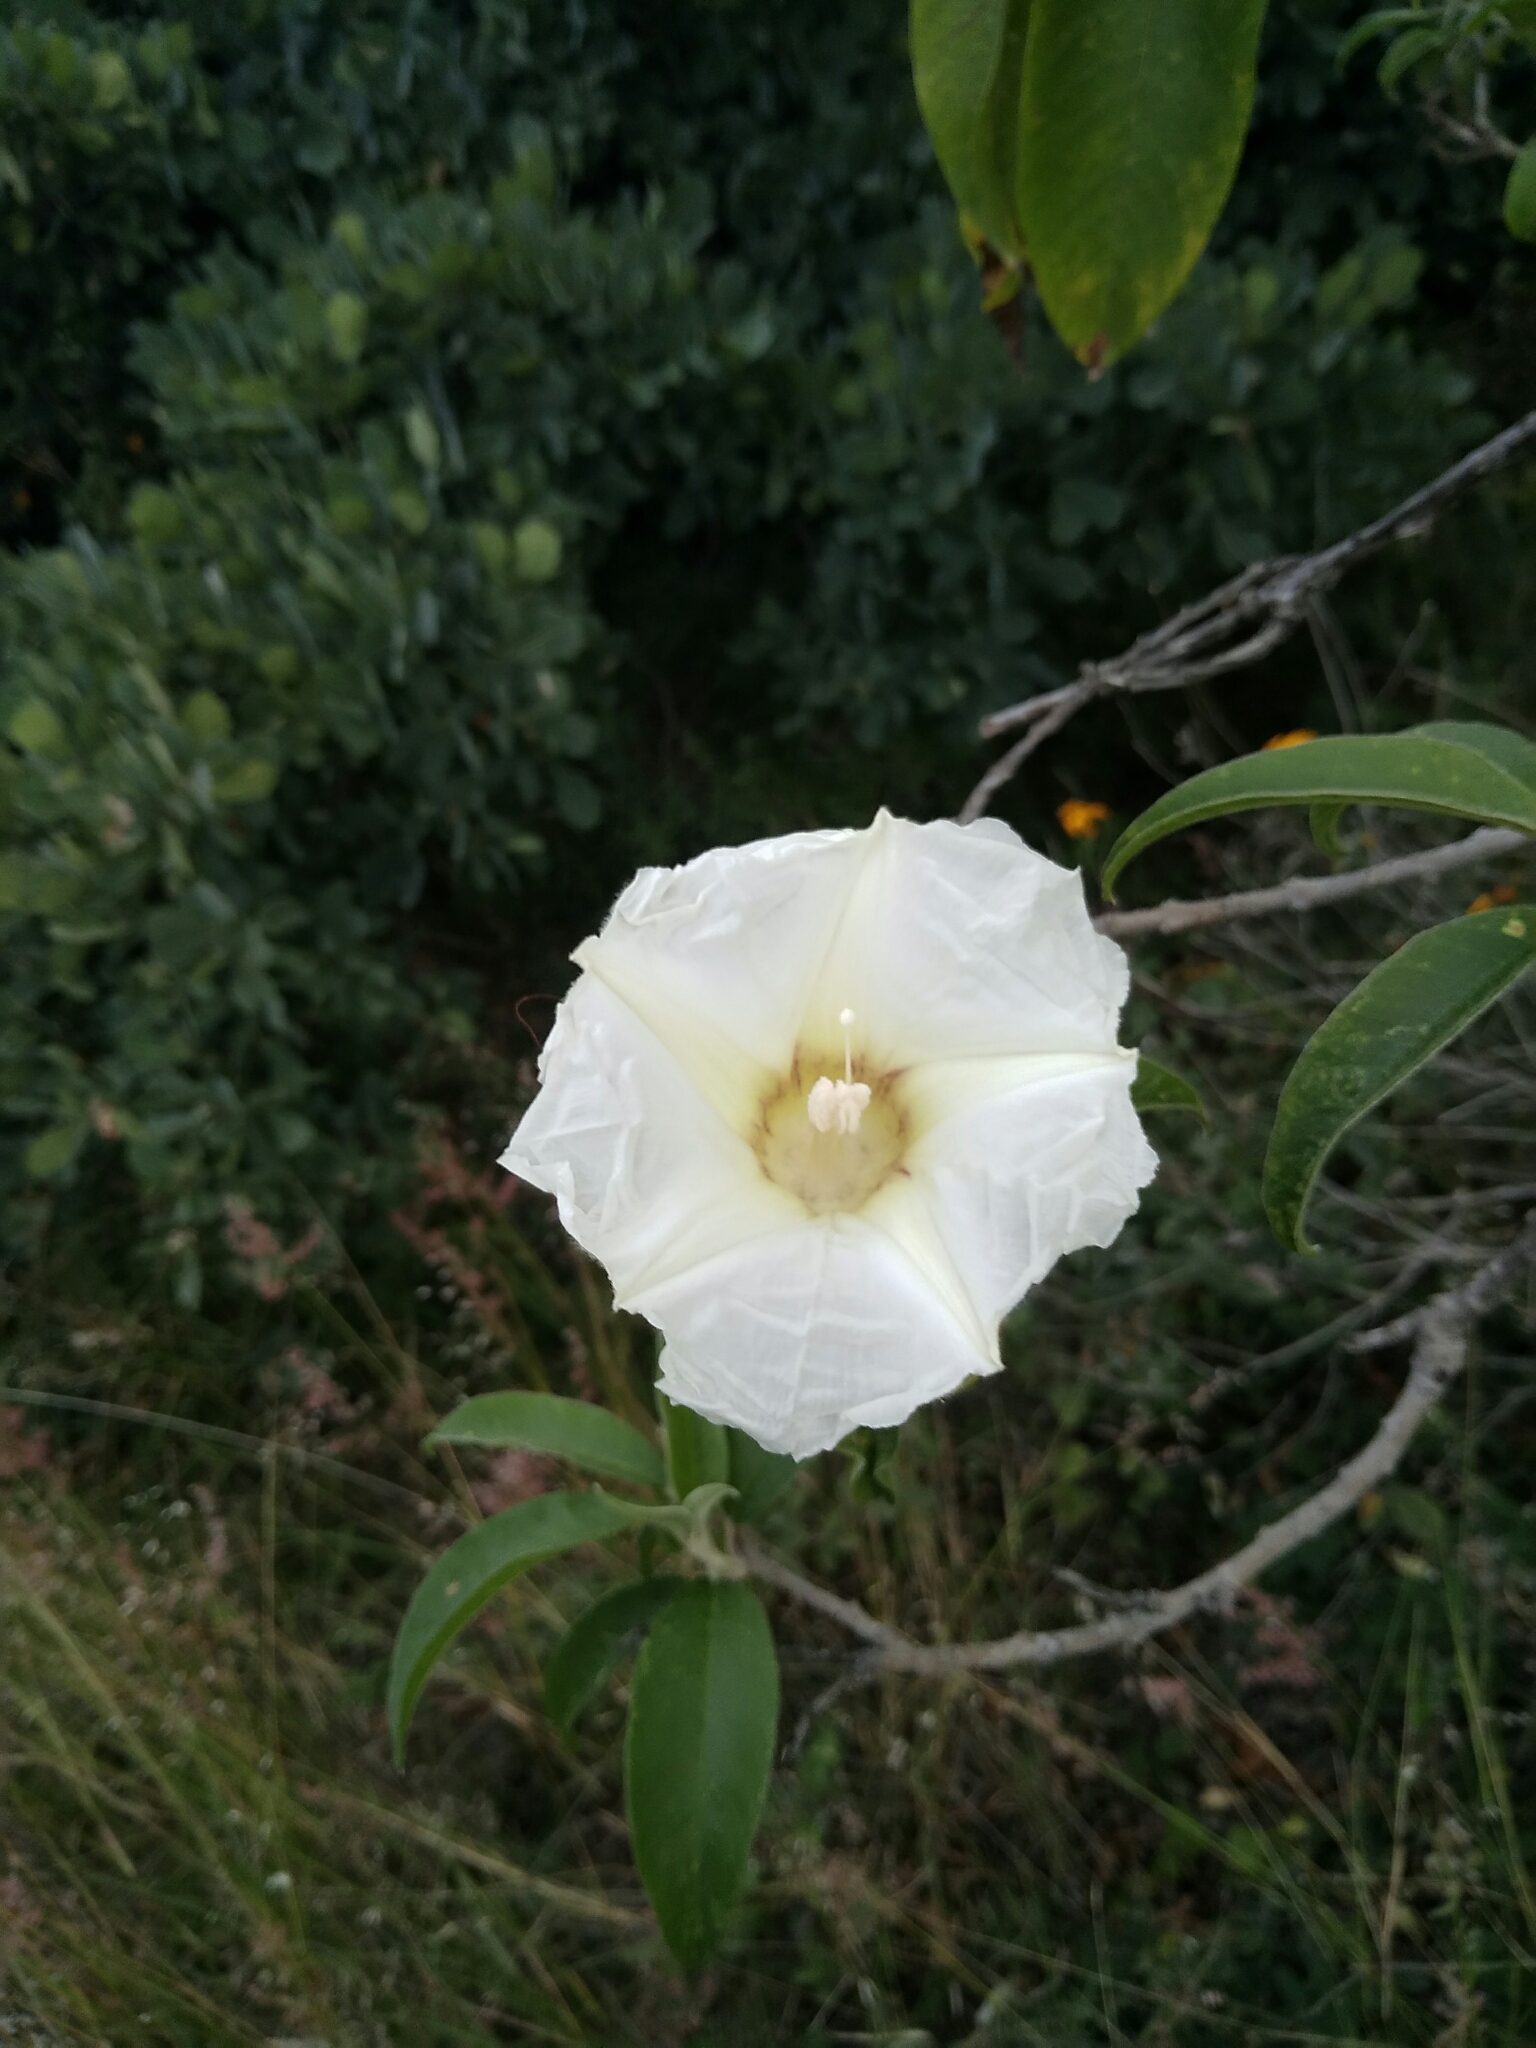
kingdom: Plantae
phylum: Tracheophyta
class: Magnoliopsida
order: Solanales
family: Convolvulaceae
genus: Ipomoea
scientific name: Ipomoea murucoides
